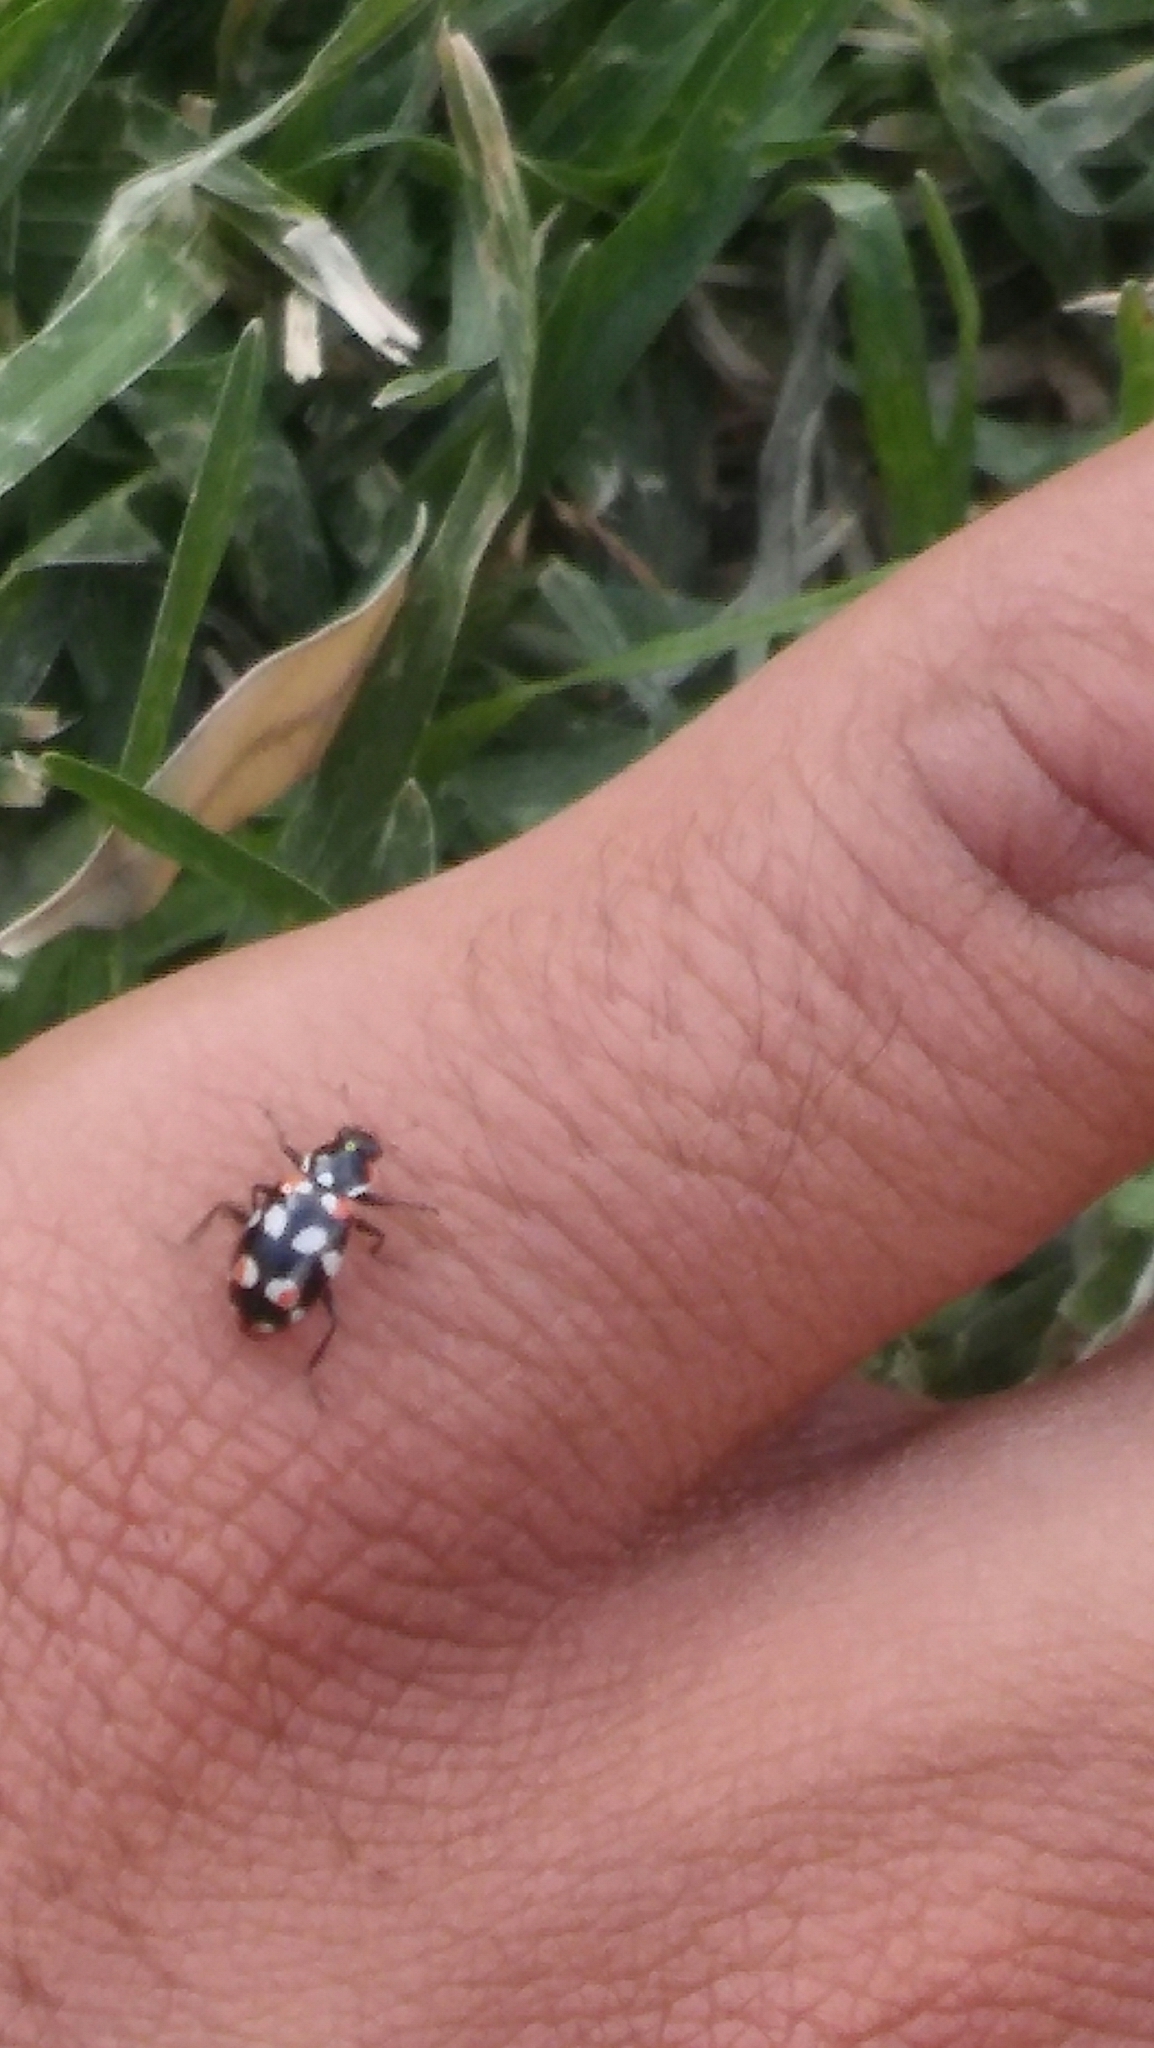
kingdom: Animalia
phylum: Arthropoda
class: Insecta
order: Coleoptera
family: Coccinellidae
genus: Eriopis
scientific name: Eriopis connexa
